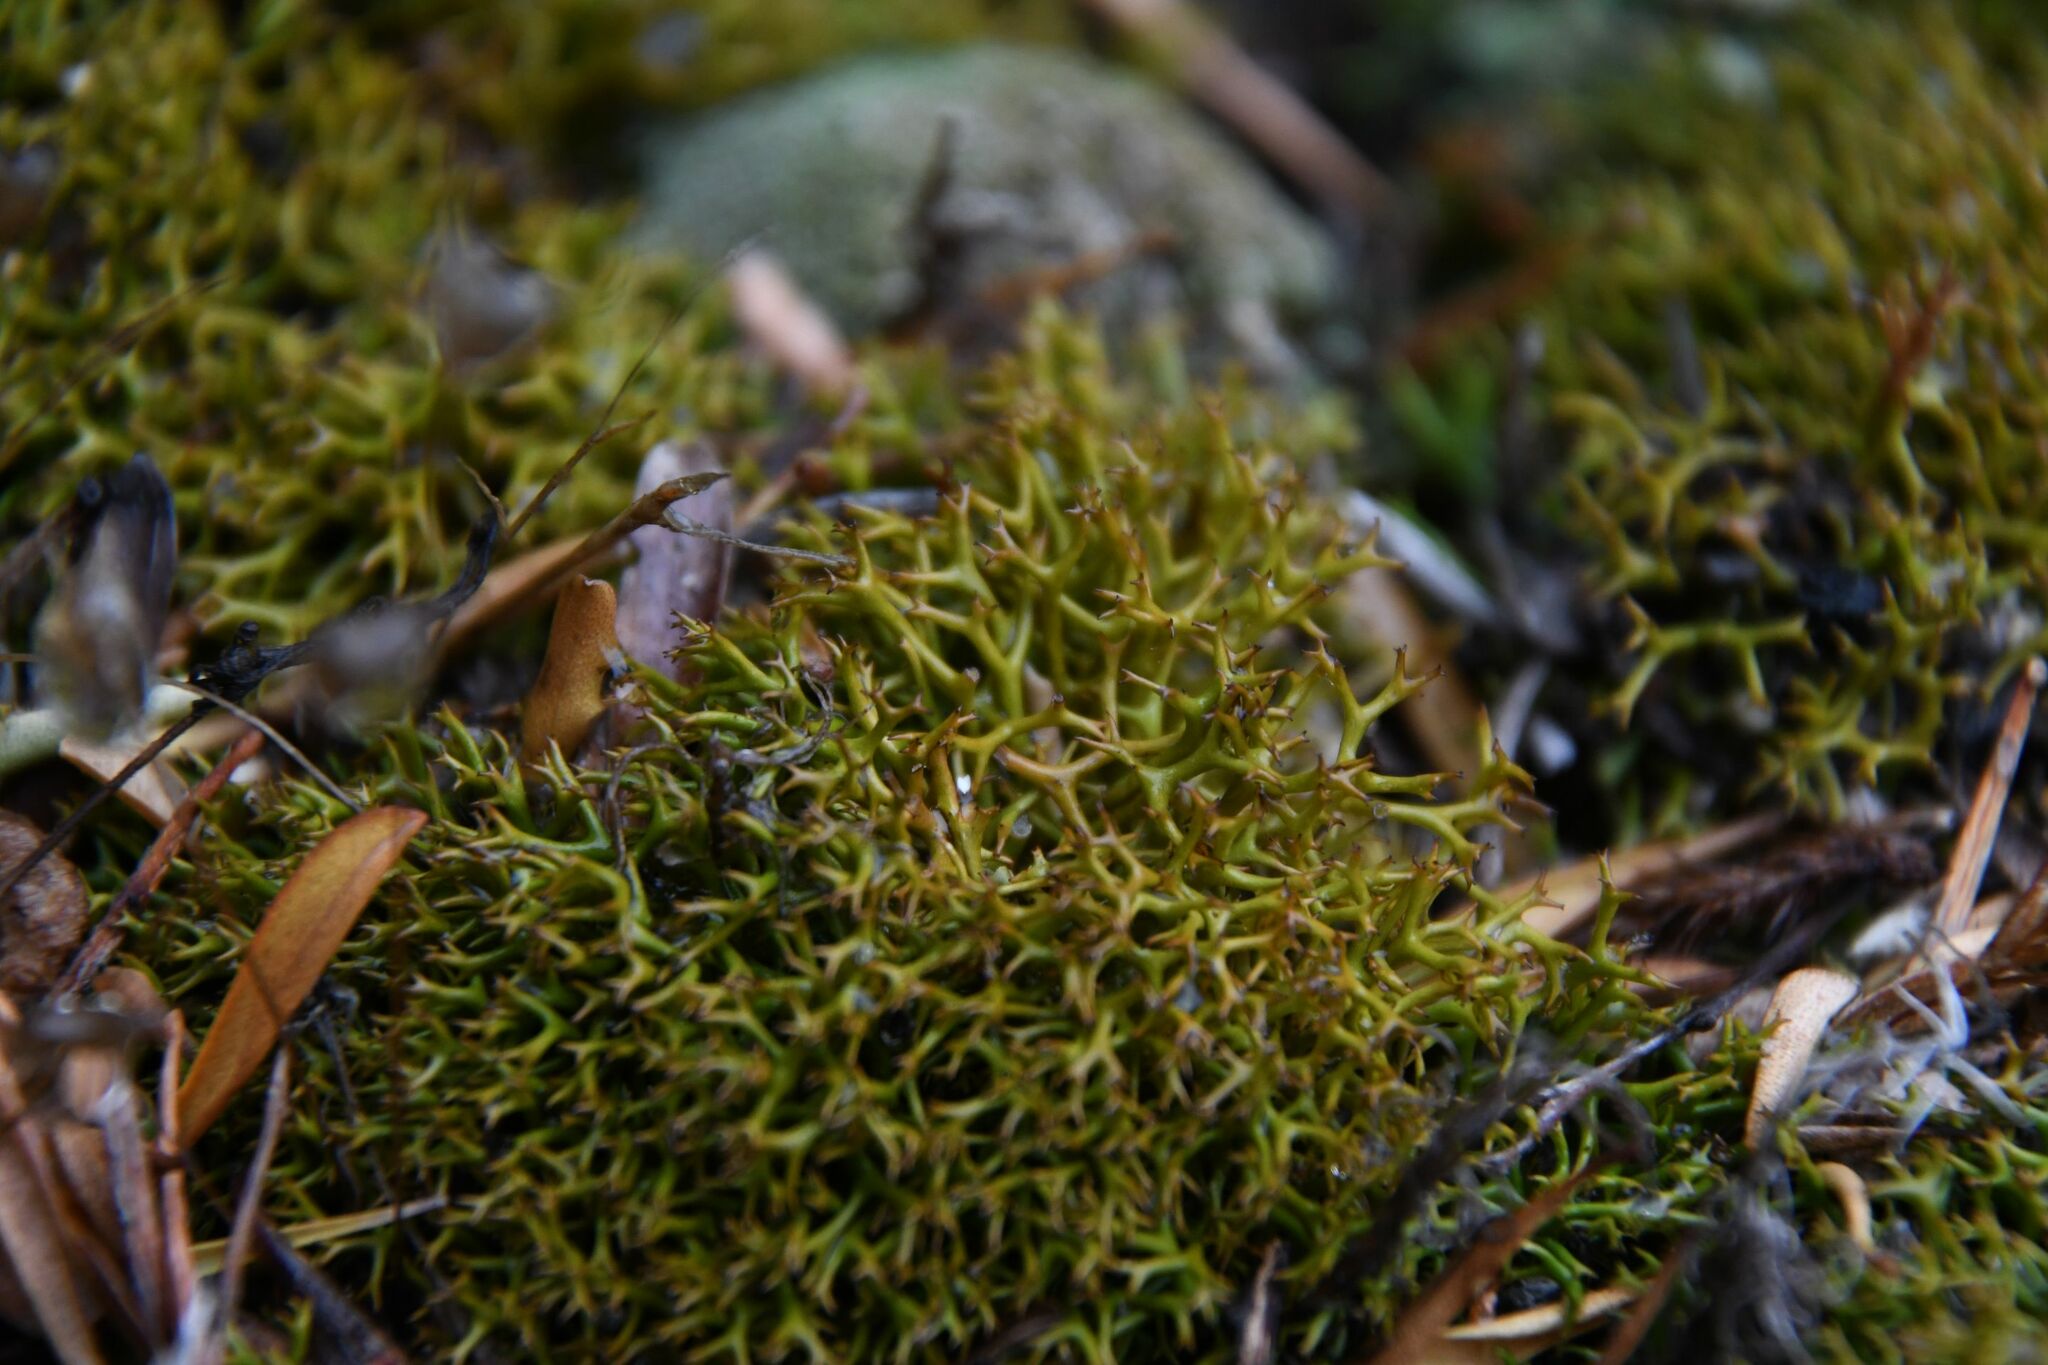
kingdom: Fungi
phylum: Ascomycota
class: Lecanoromycetes
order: Lecanorales
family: Cladoniaceae
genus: Cladia
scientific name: Cladia aggregata
